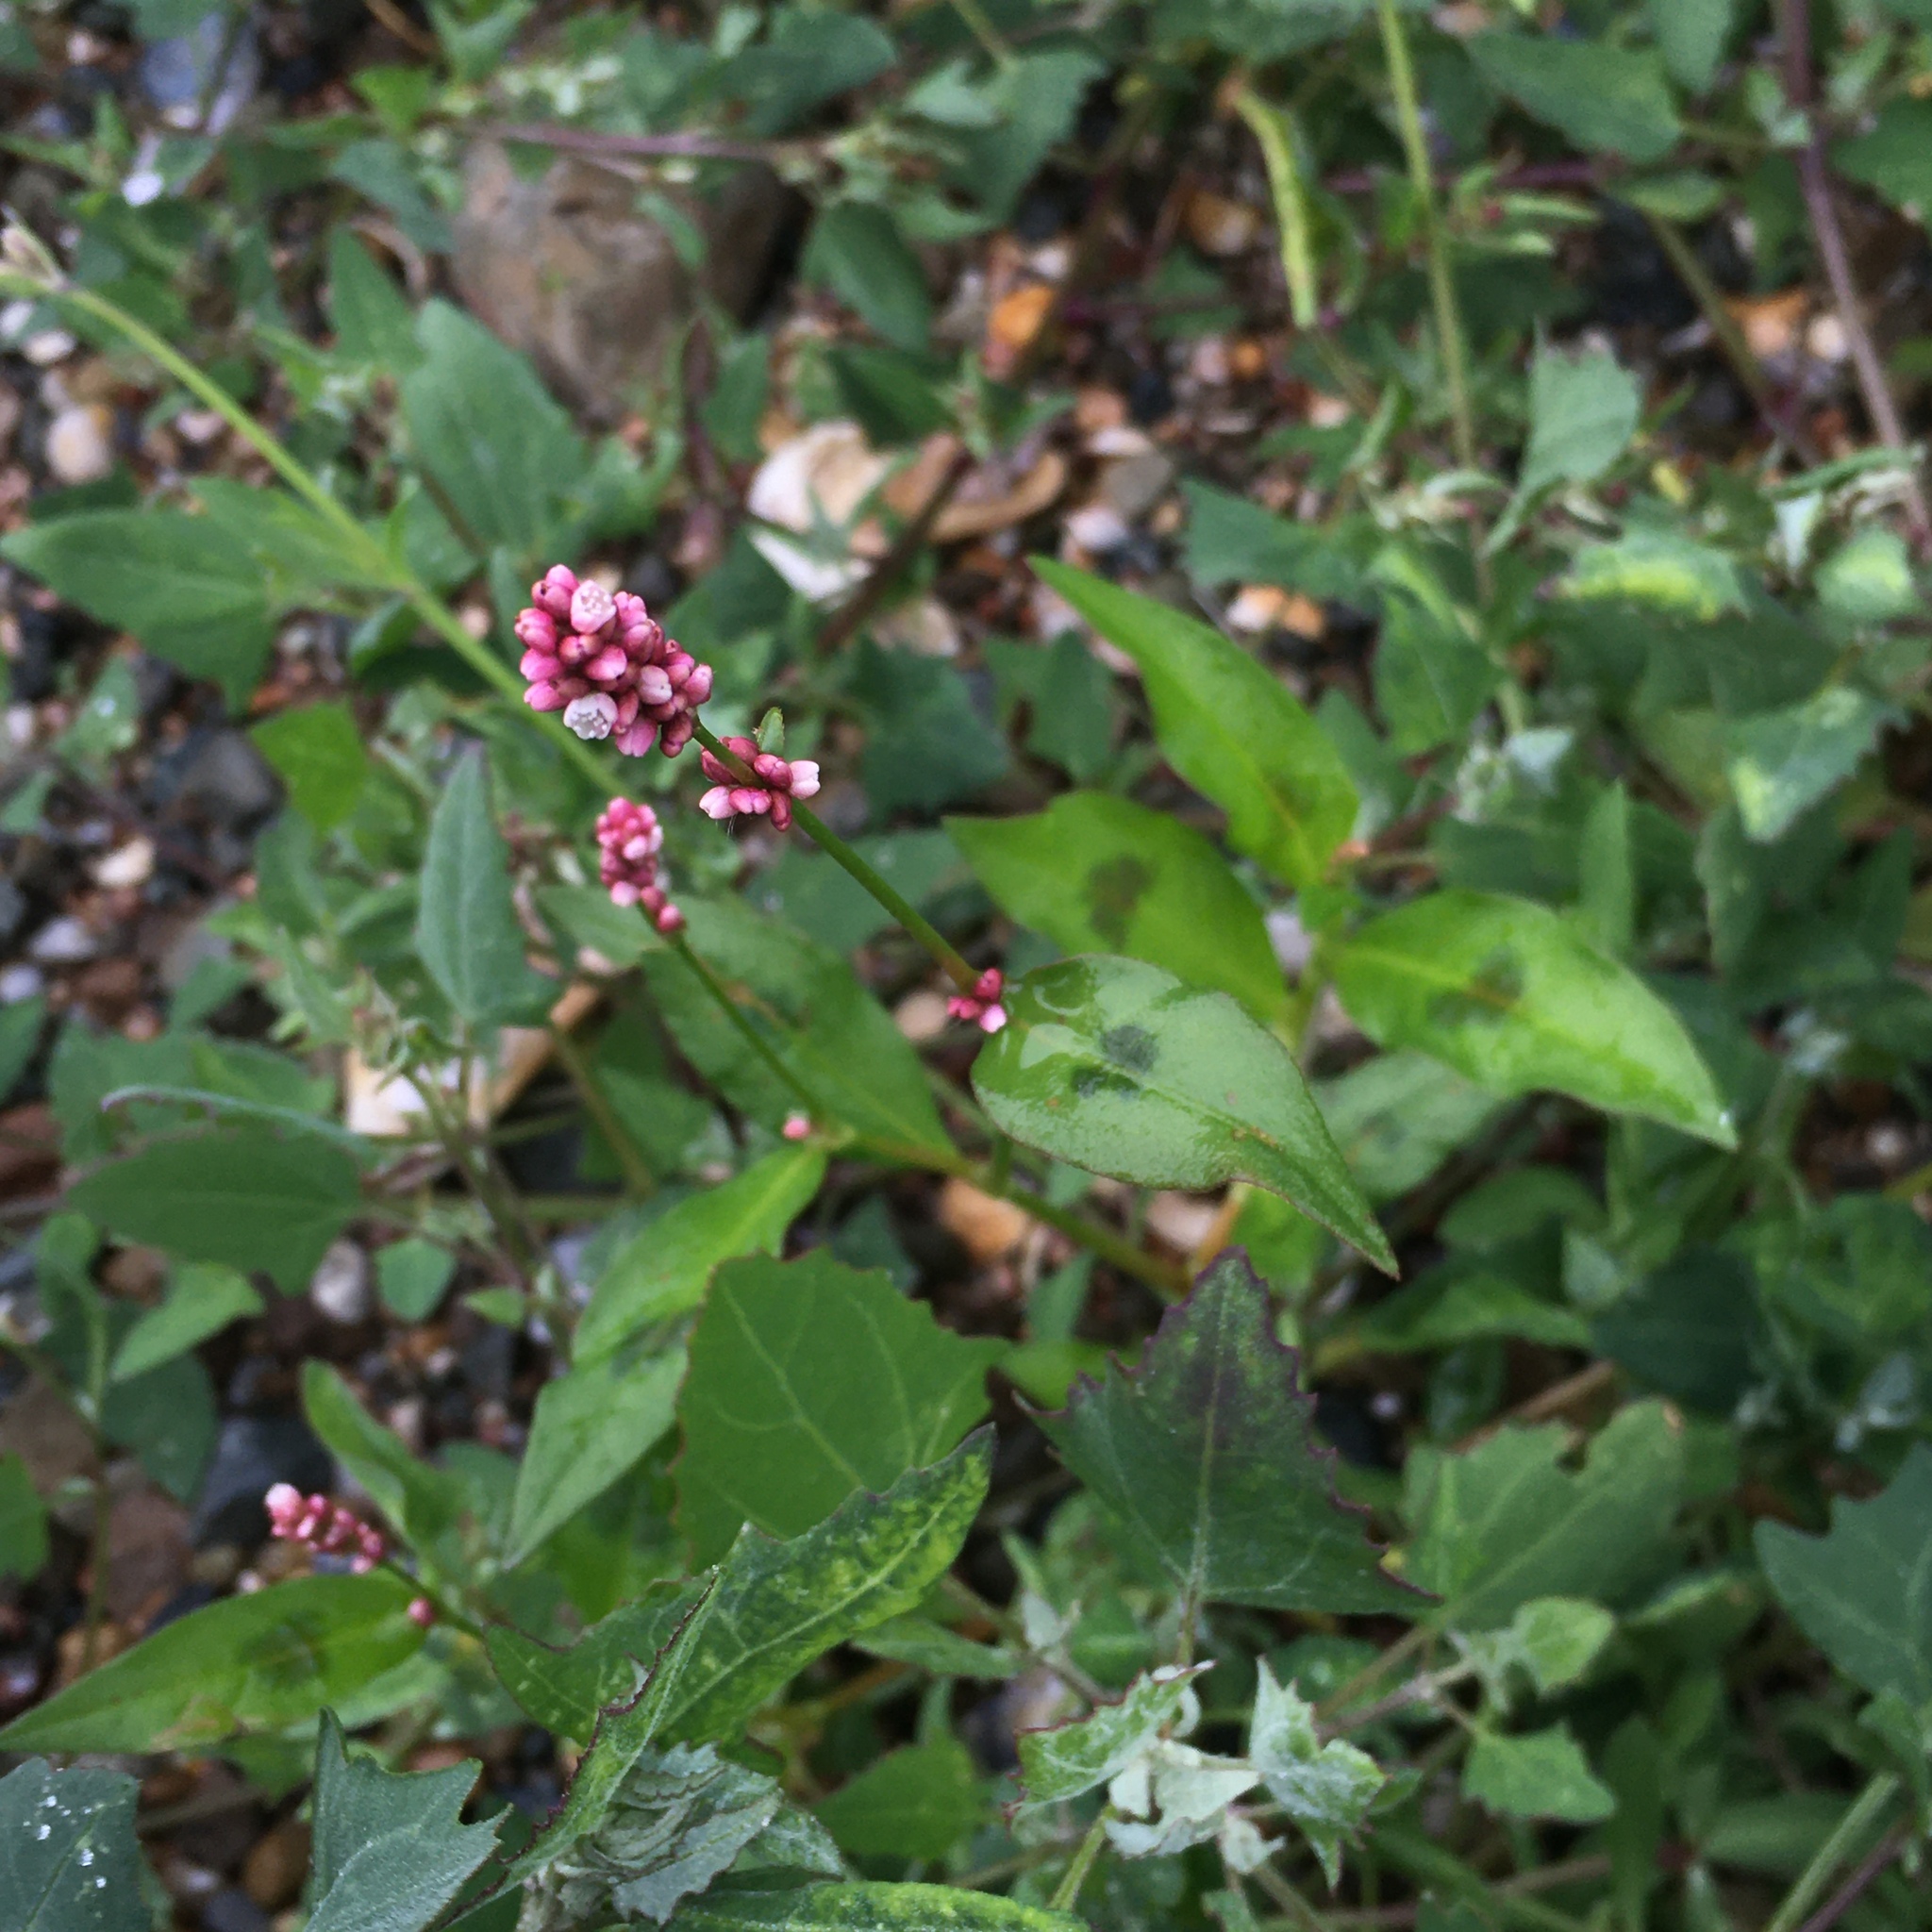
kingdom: Plantae
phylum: Tracheophyta
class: Magnoliopsida
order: Caryophyllales
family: Polygonaceae
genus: Persicaria
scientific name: Persicaria maculosa
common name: Redshank
